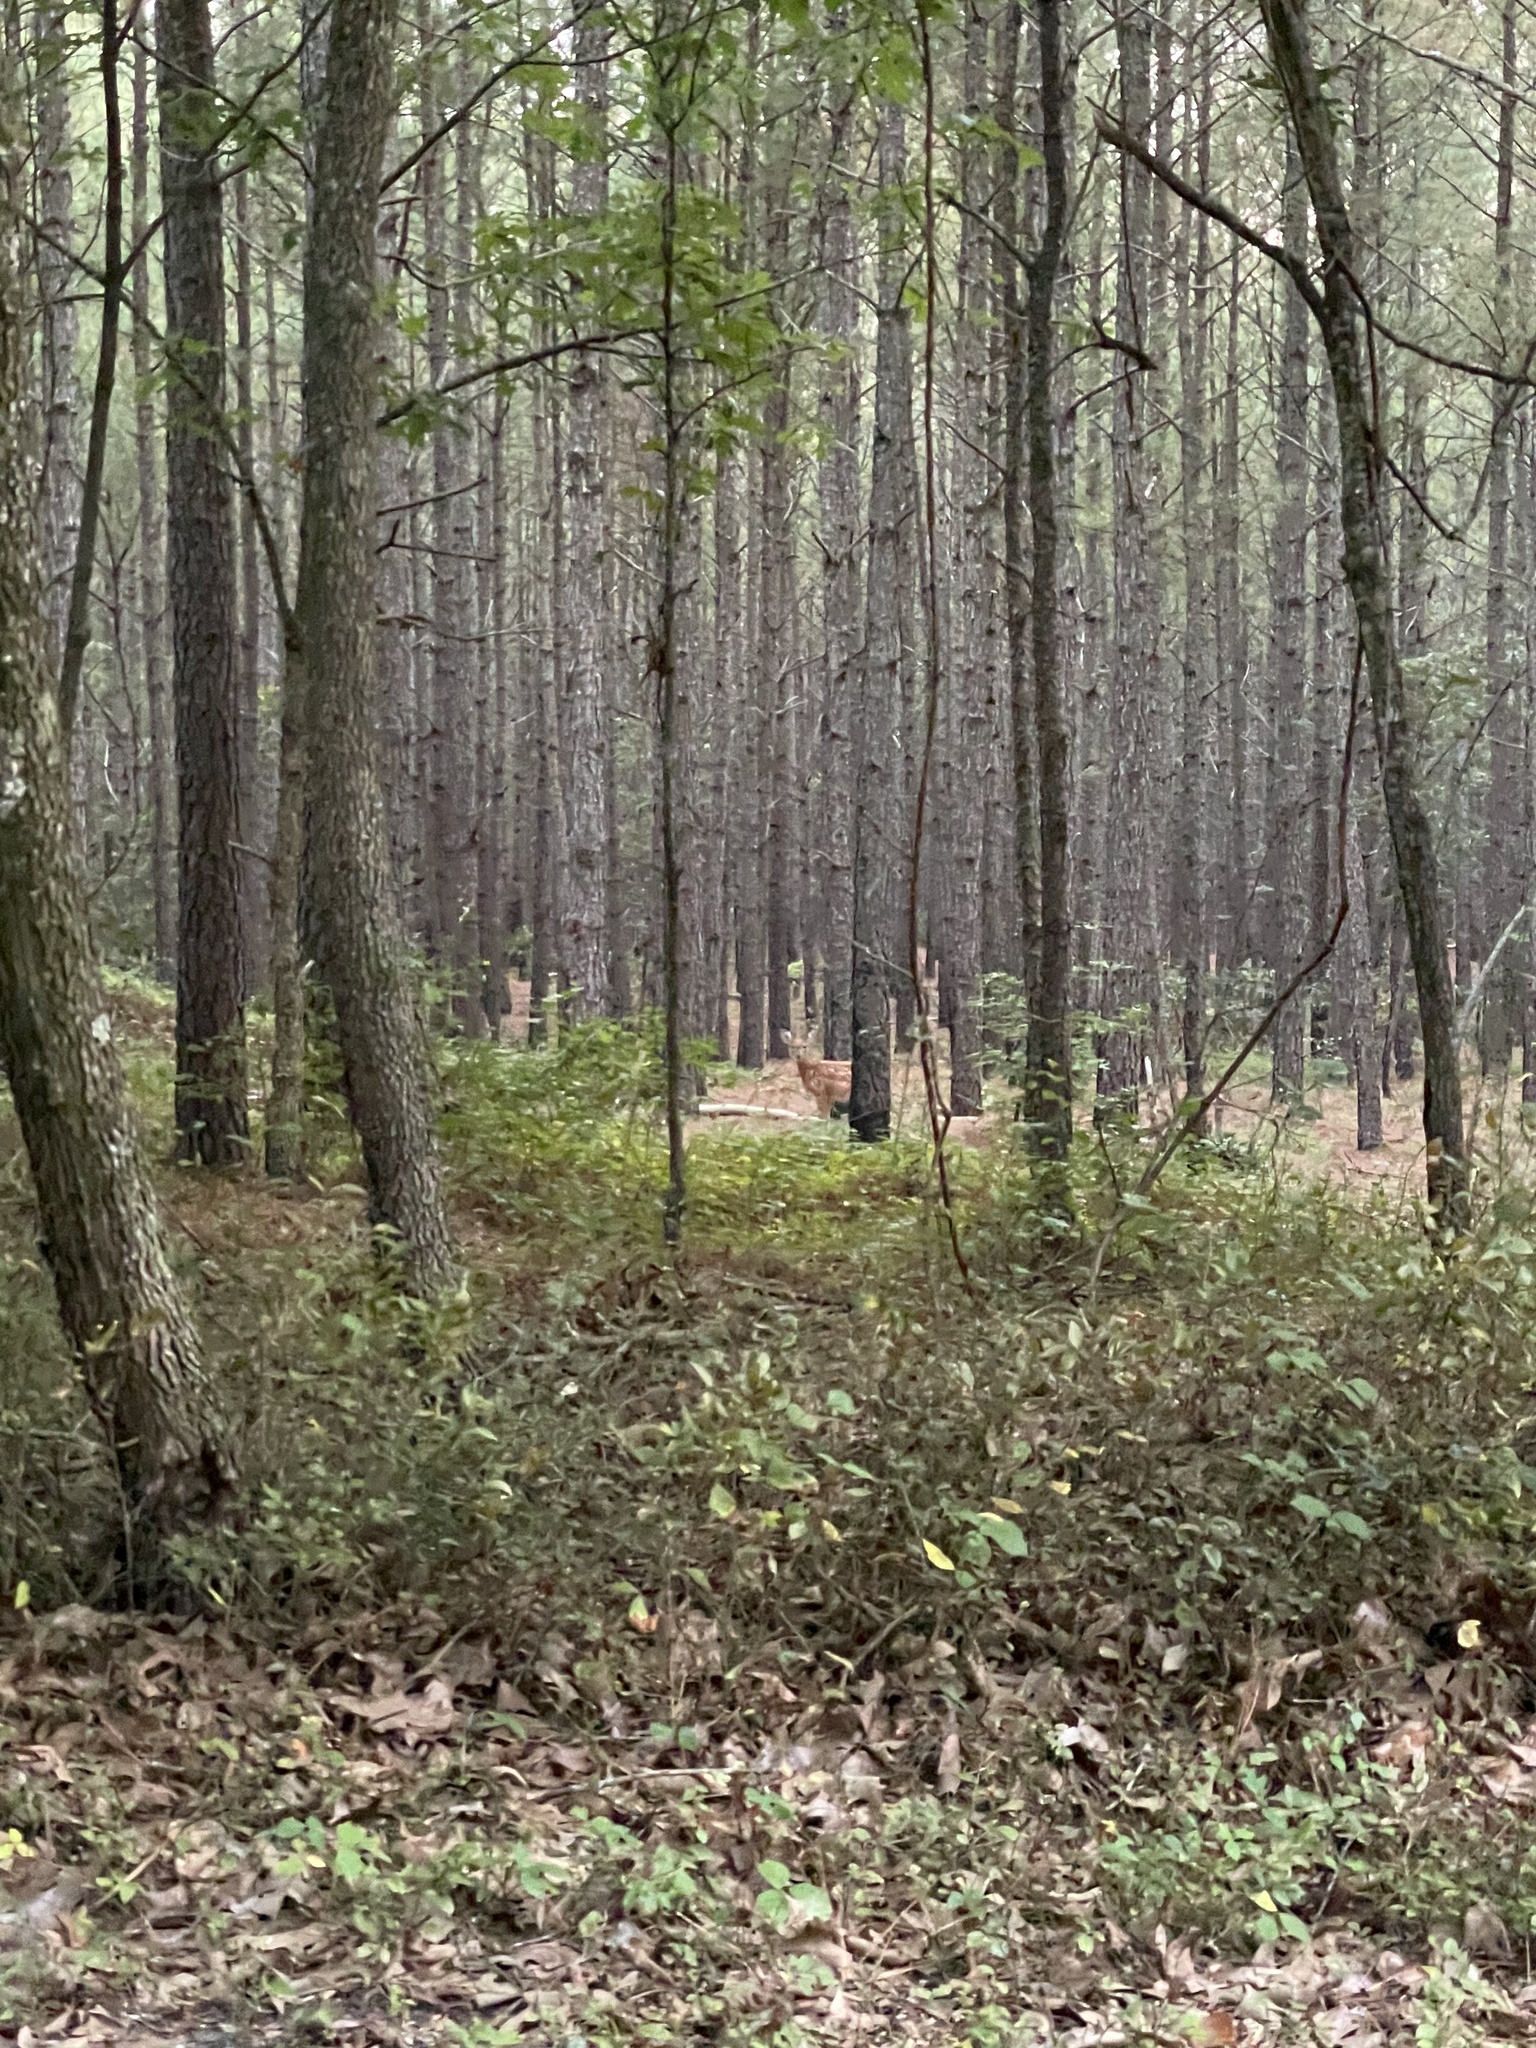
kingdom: Animalia
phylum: Chordata
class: Mammalia
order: Artiodactyla
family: Cervidae
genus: Odocoileus
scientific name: Odocoileus virginianus
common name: White-tailed deer
